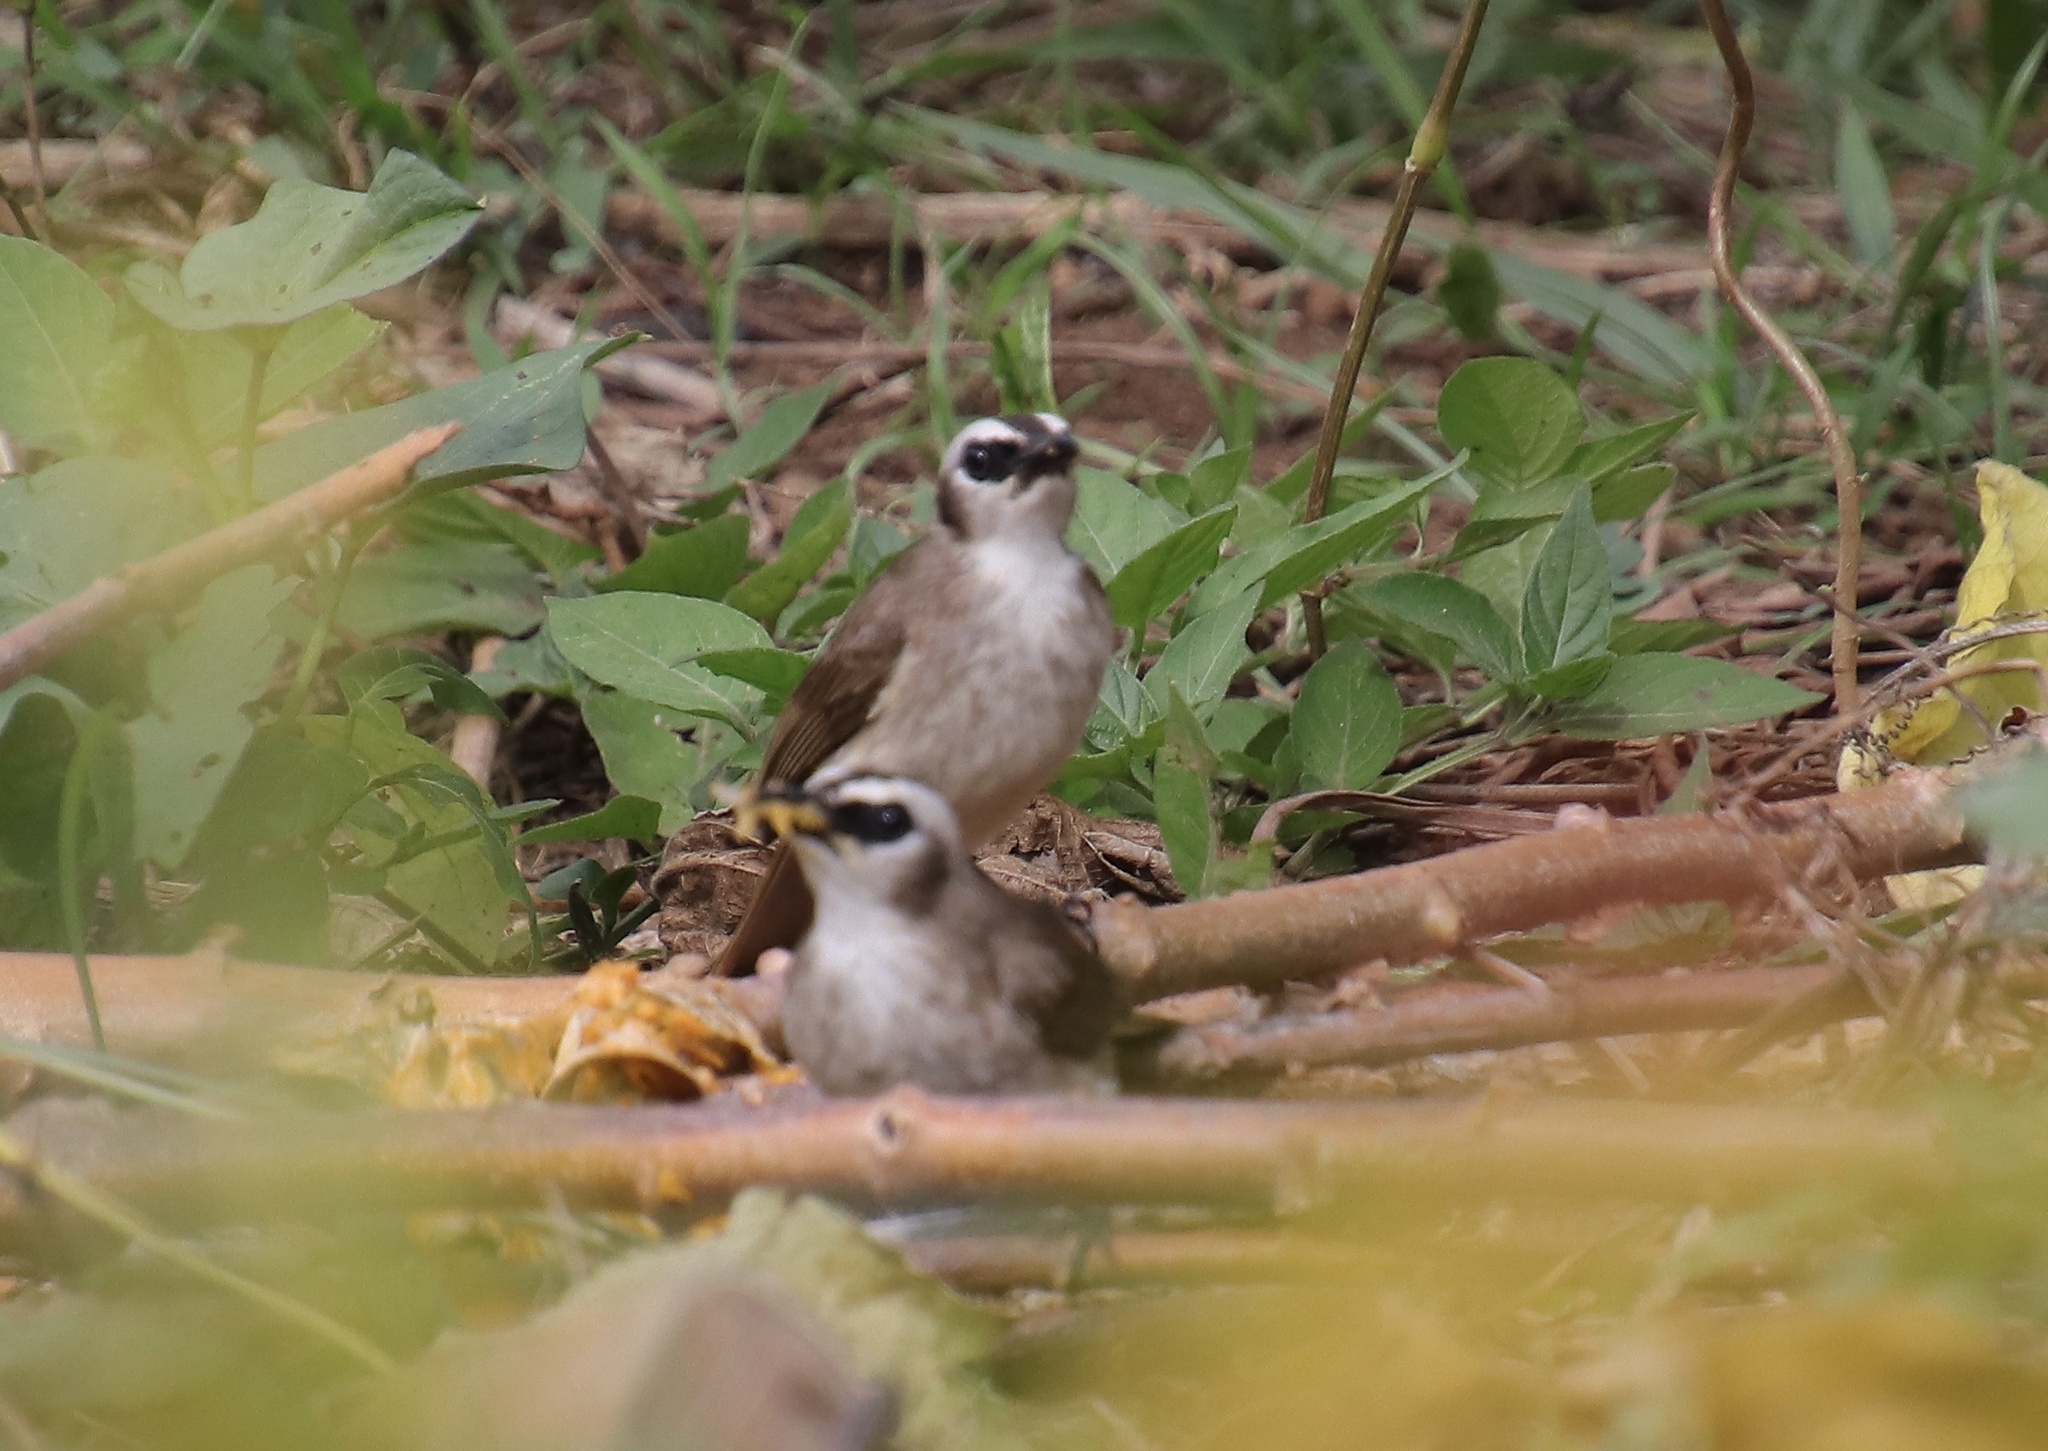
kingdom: Animalia
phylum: Chordata
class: Aves
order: Passeriformes
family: Pycnonotidae
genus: Pycnonotus
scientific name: Pycnonotus goiavier
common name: Yellow-vented bulbul
